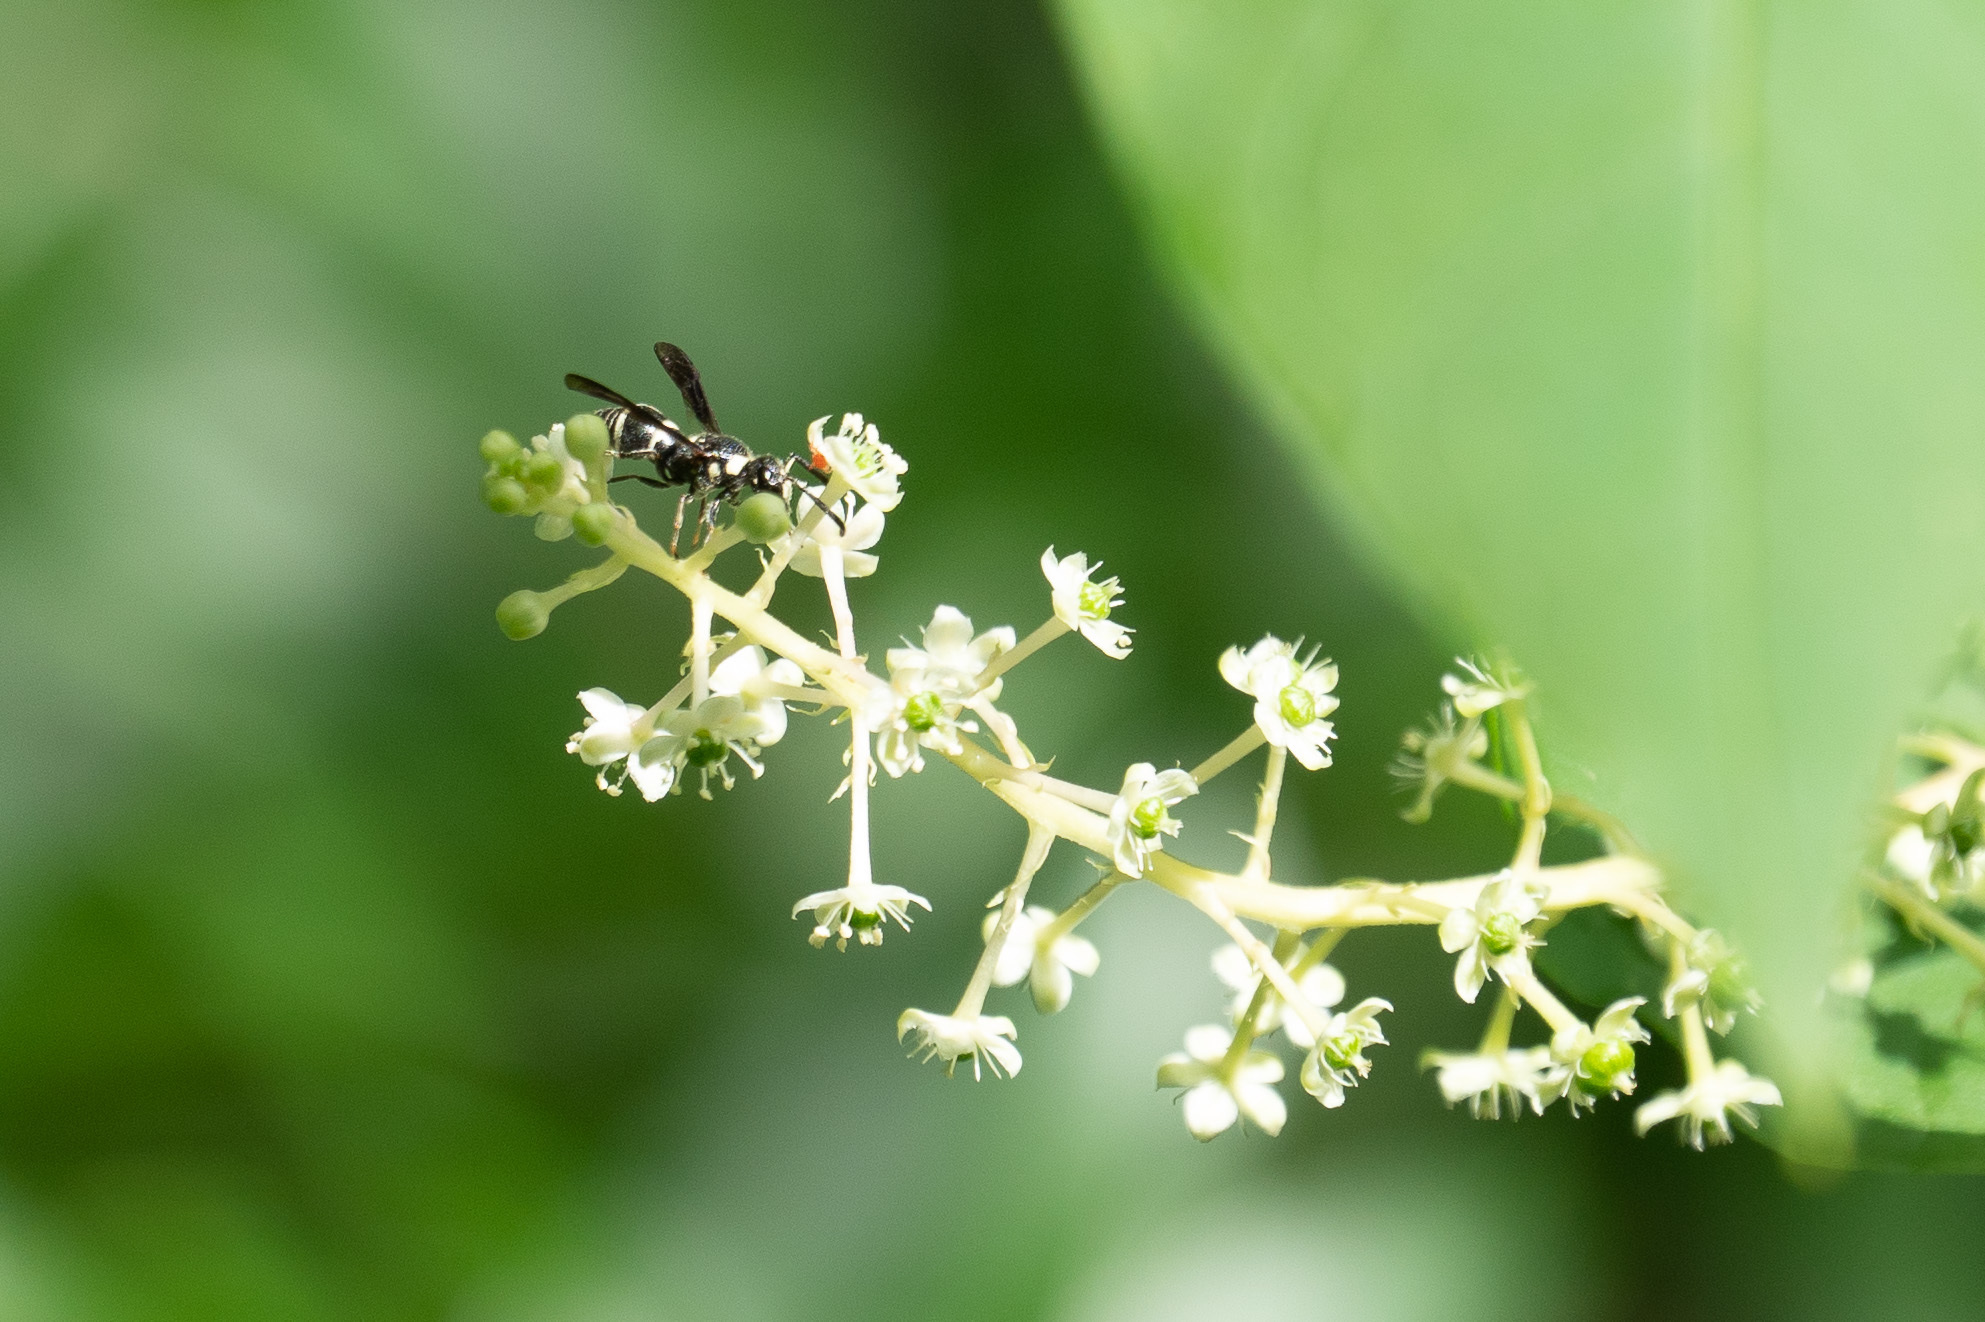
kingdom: Animalia
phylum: Arthropoda
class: Insecta
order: Hymenoptera
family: Eumenidae
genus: Euodynerus
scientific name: Euodynerus schwarzi
